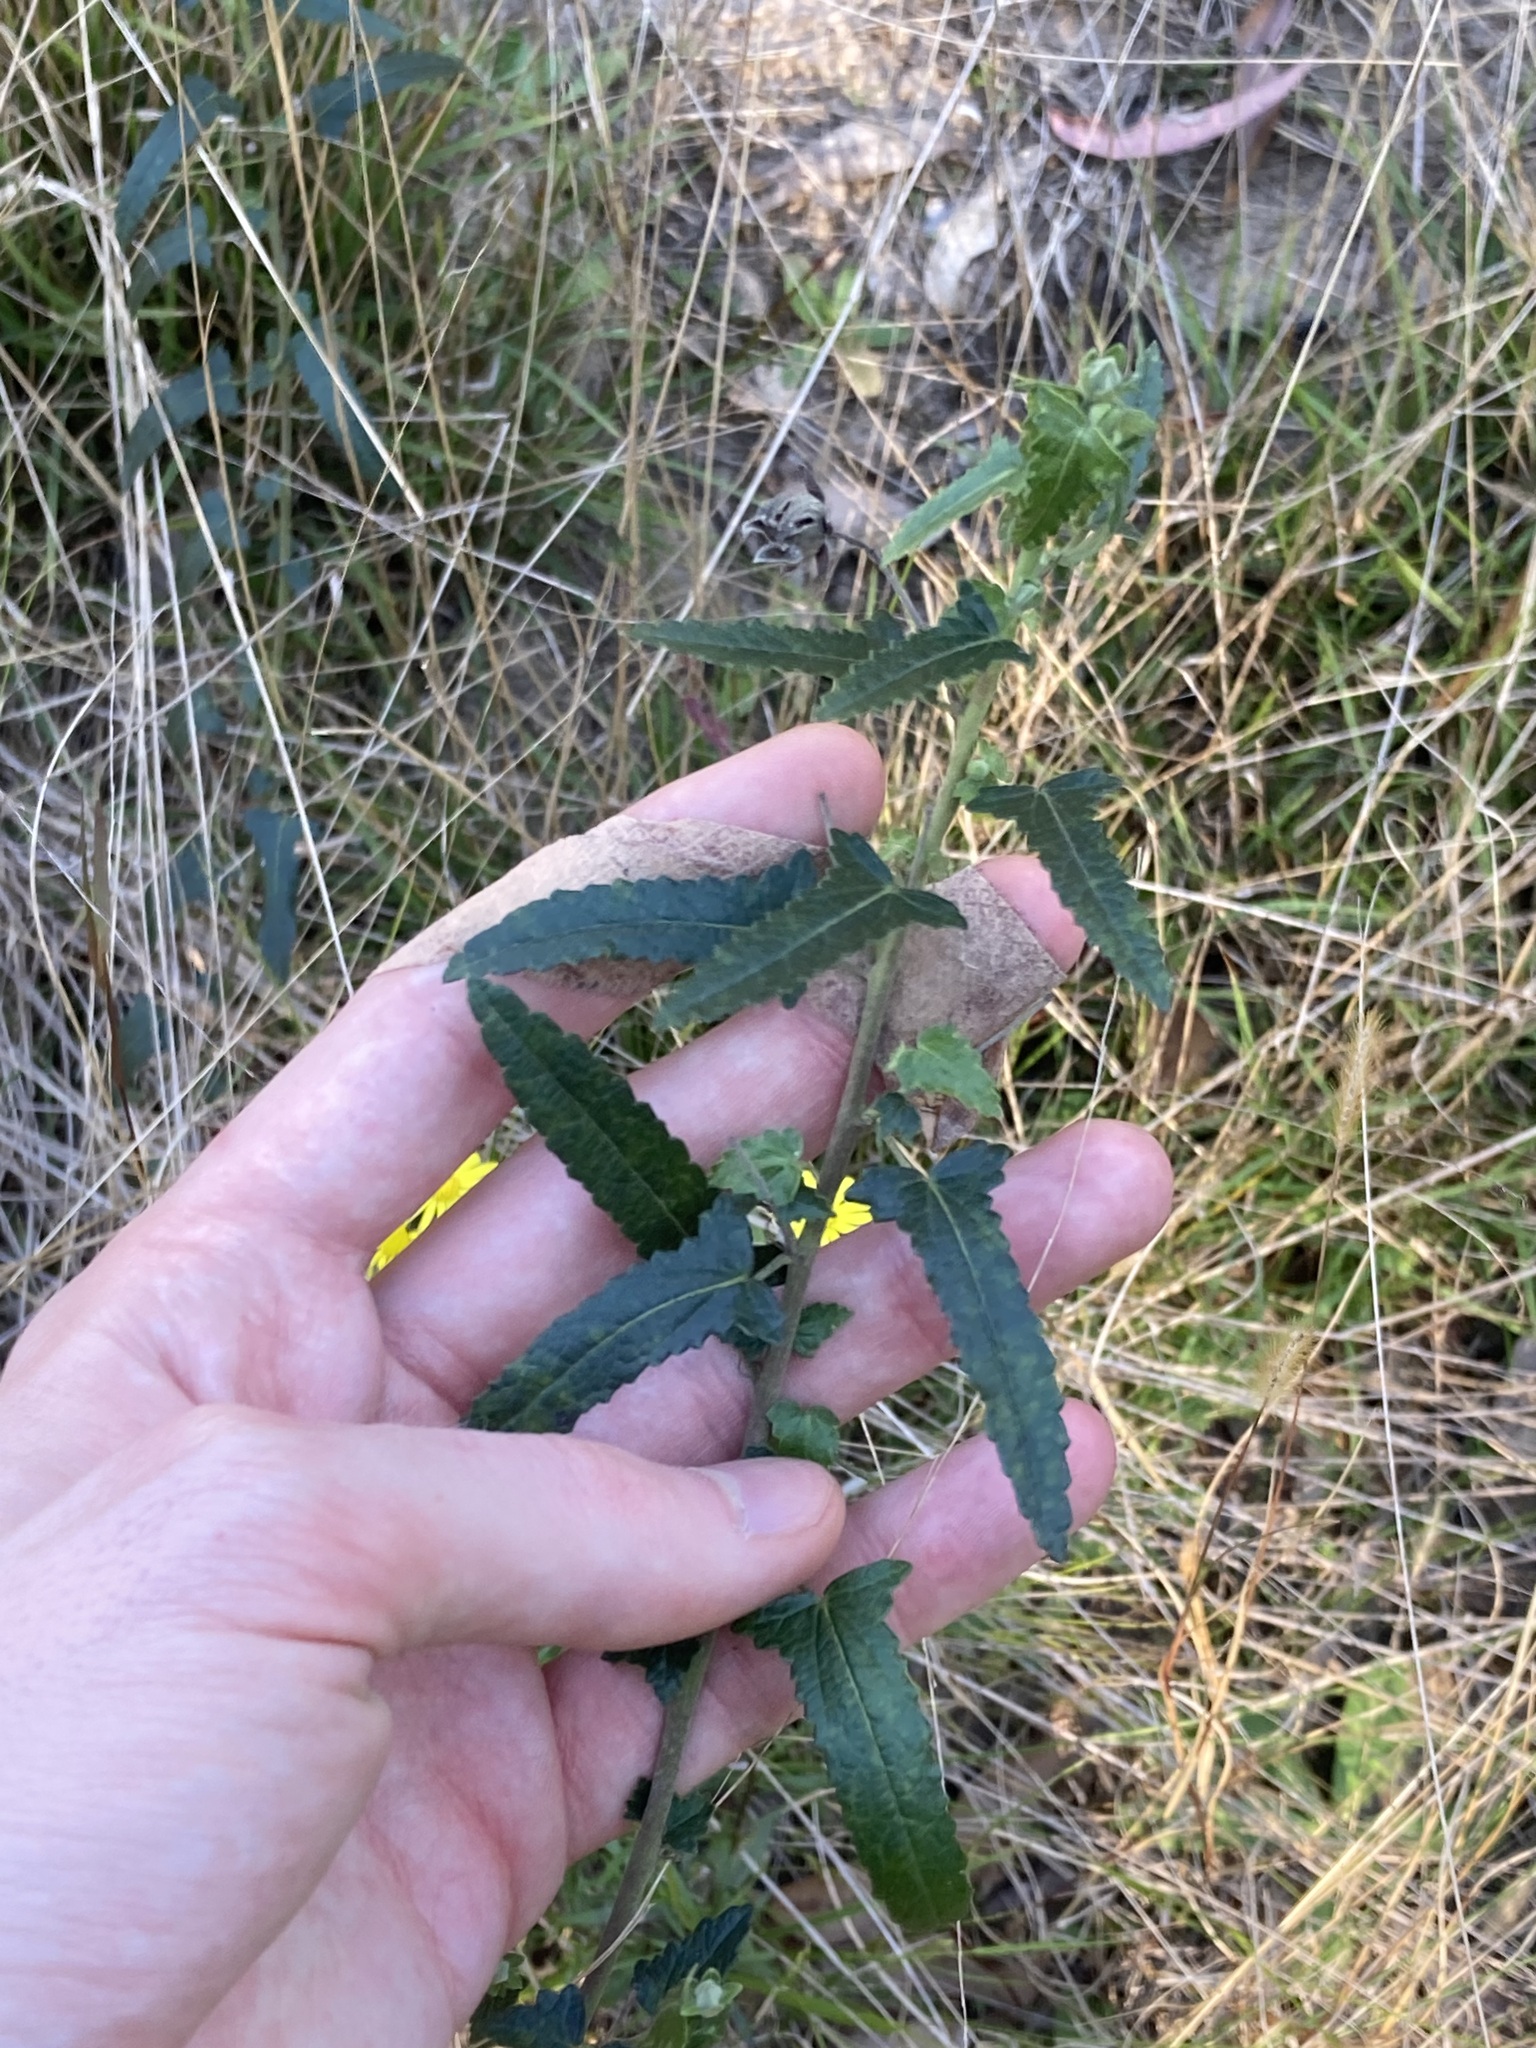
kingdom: Plantae
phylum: Tracheophyta
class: Magnoliopsida
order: Malvales
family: Malvaceae
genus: Pavonia
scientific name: Pavonia hastata
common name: Spearleaf swampmallow
